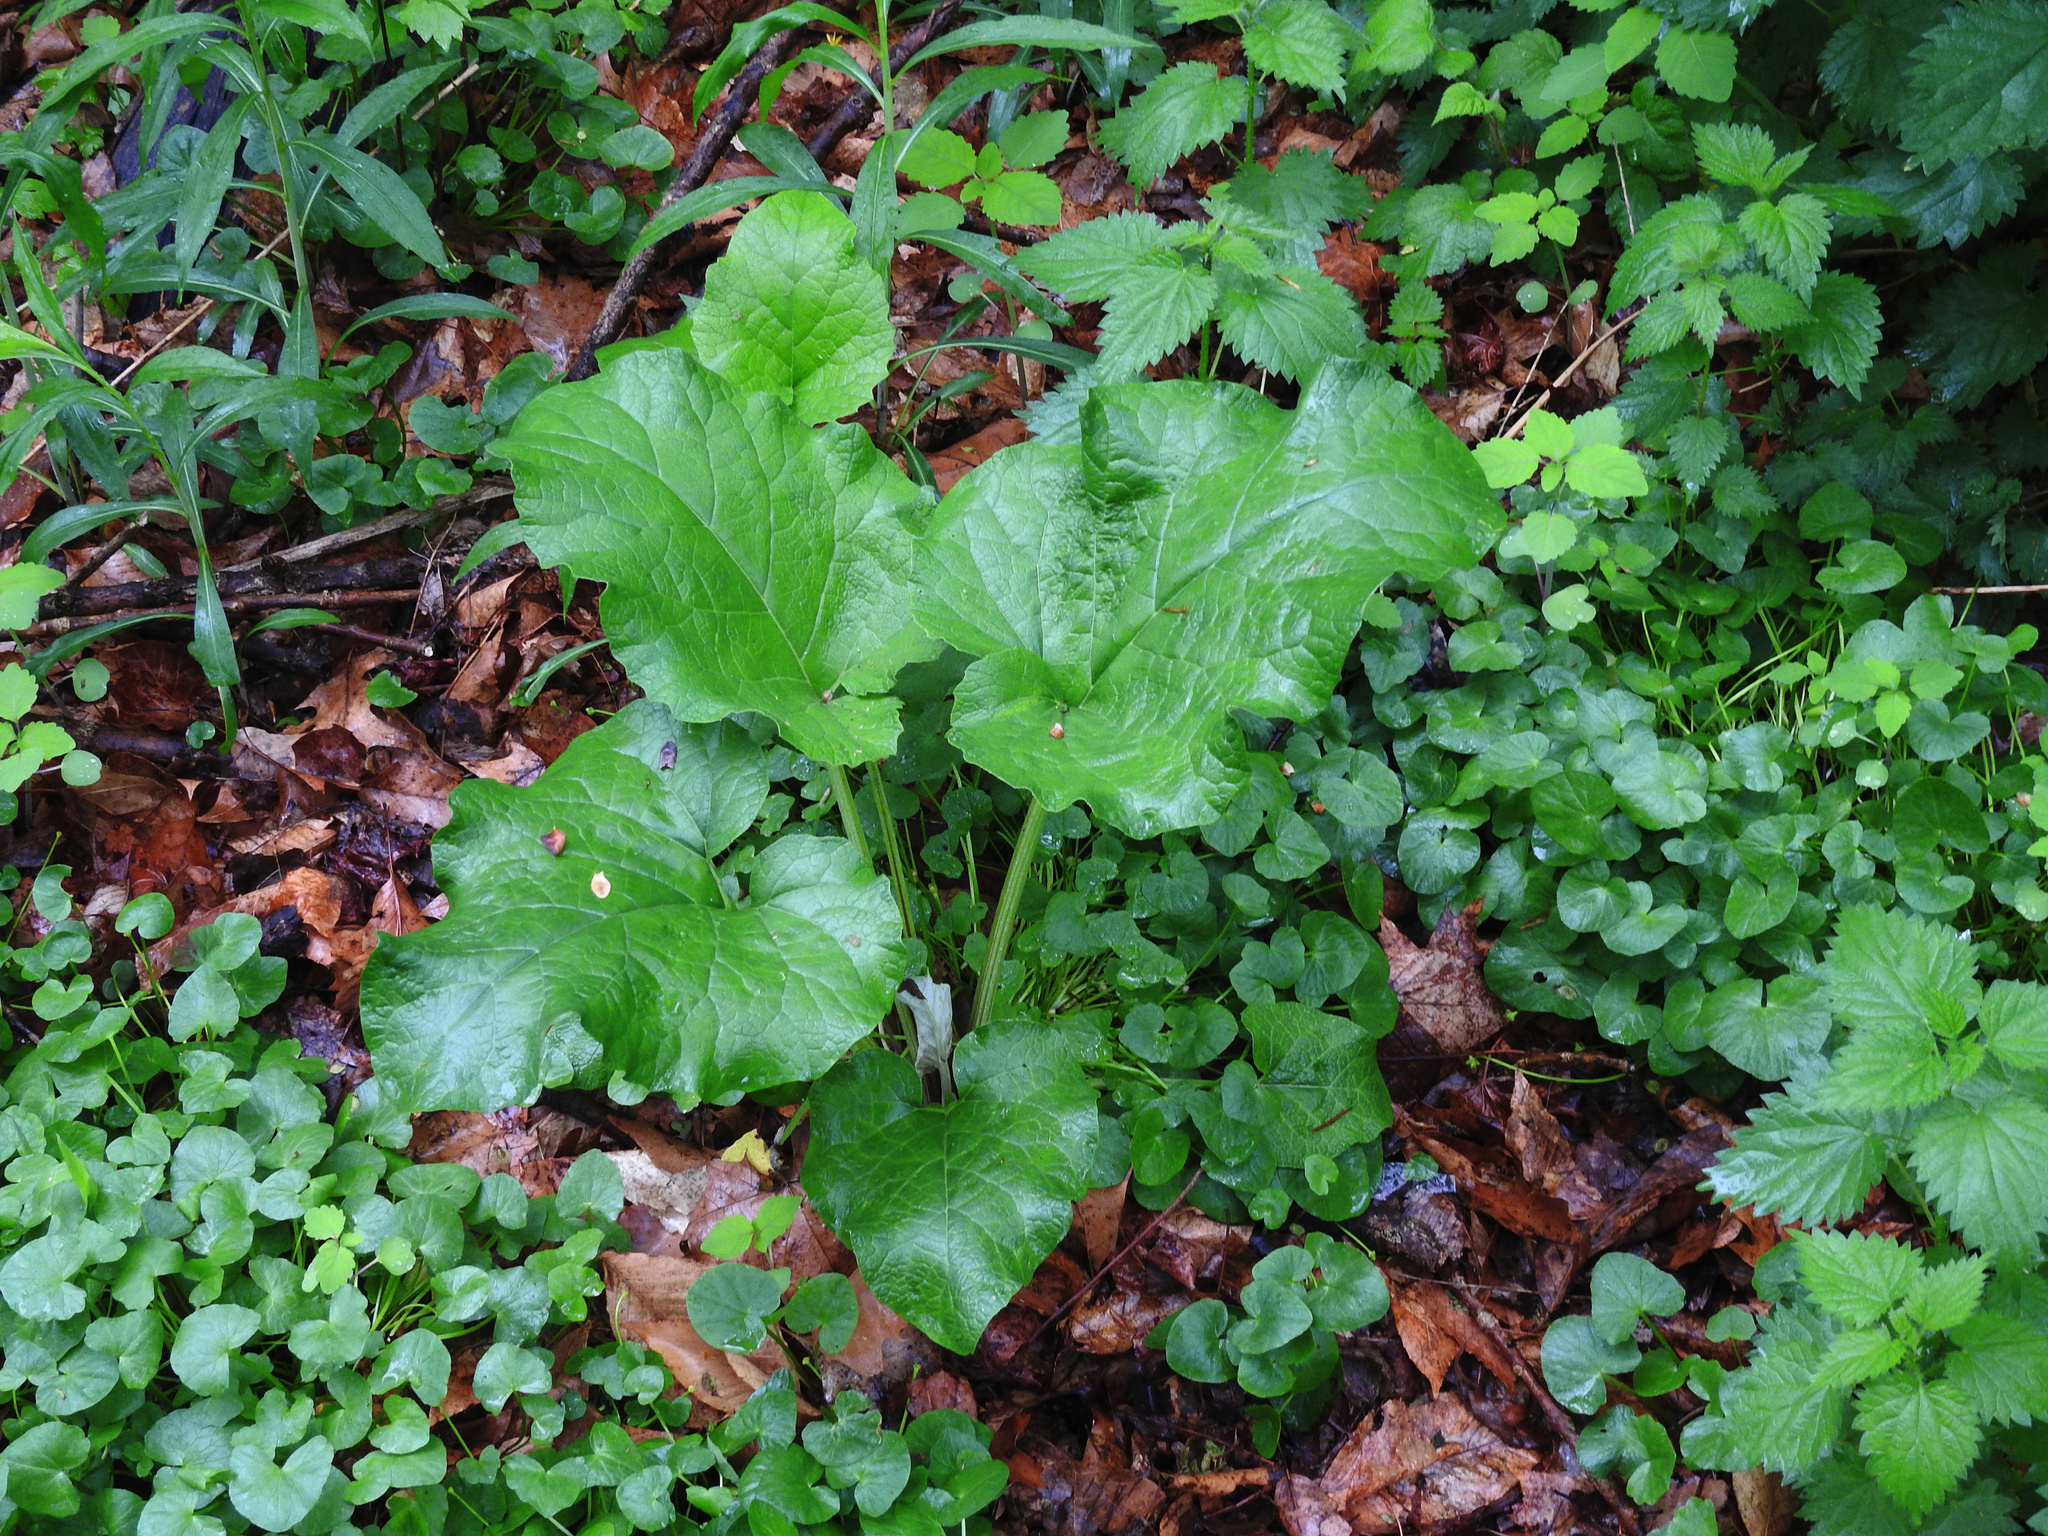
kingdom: Plantae
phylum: Tracheophyta
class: Liliopsida
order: Alismatales
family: Araceae
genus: Symplocarpus
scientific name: Symplocarpus foetidus
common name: Eastern skunk cabbage
